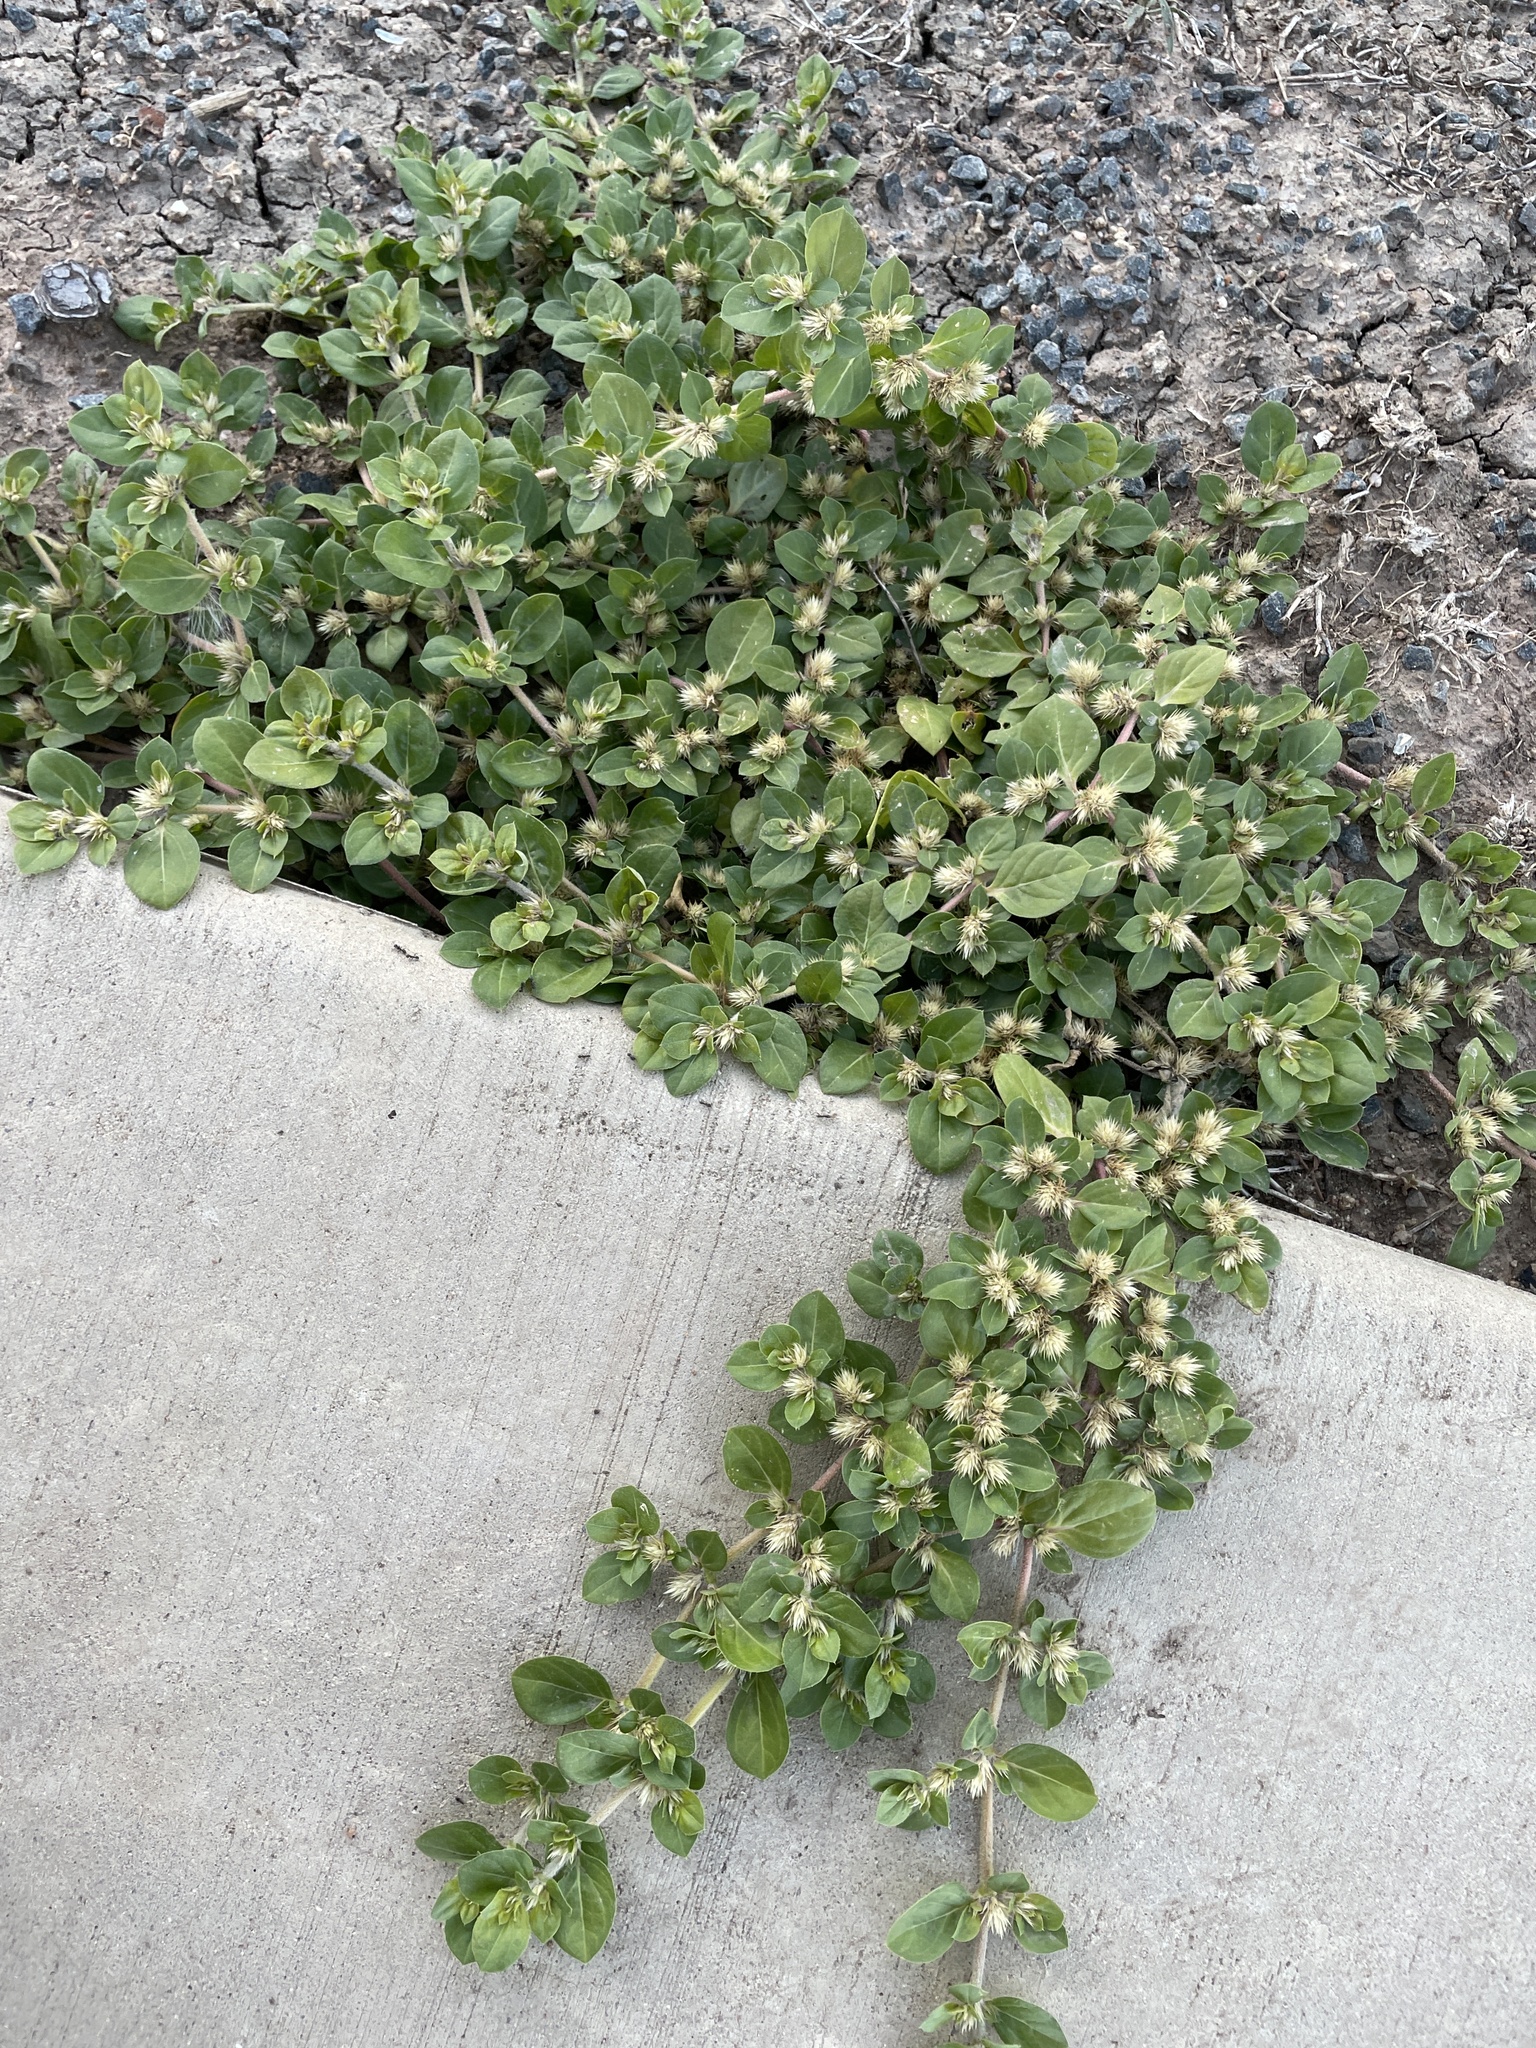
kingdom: Plantae
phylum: Tracheophyta
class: Magnoliopsida
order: Caryophyllales
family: Amaranthaceae
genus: Alternanthera
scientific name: Alternanthera pungens
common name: Khakiweed
